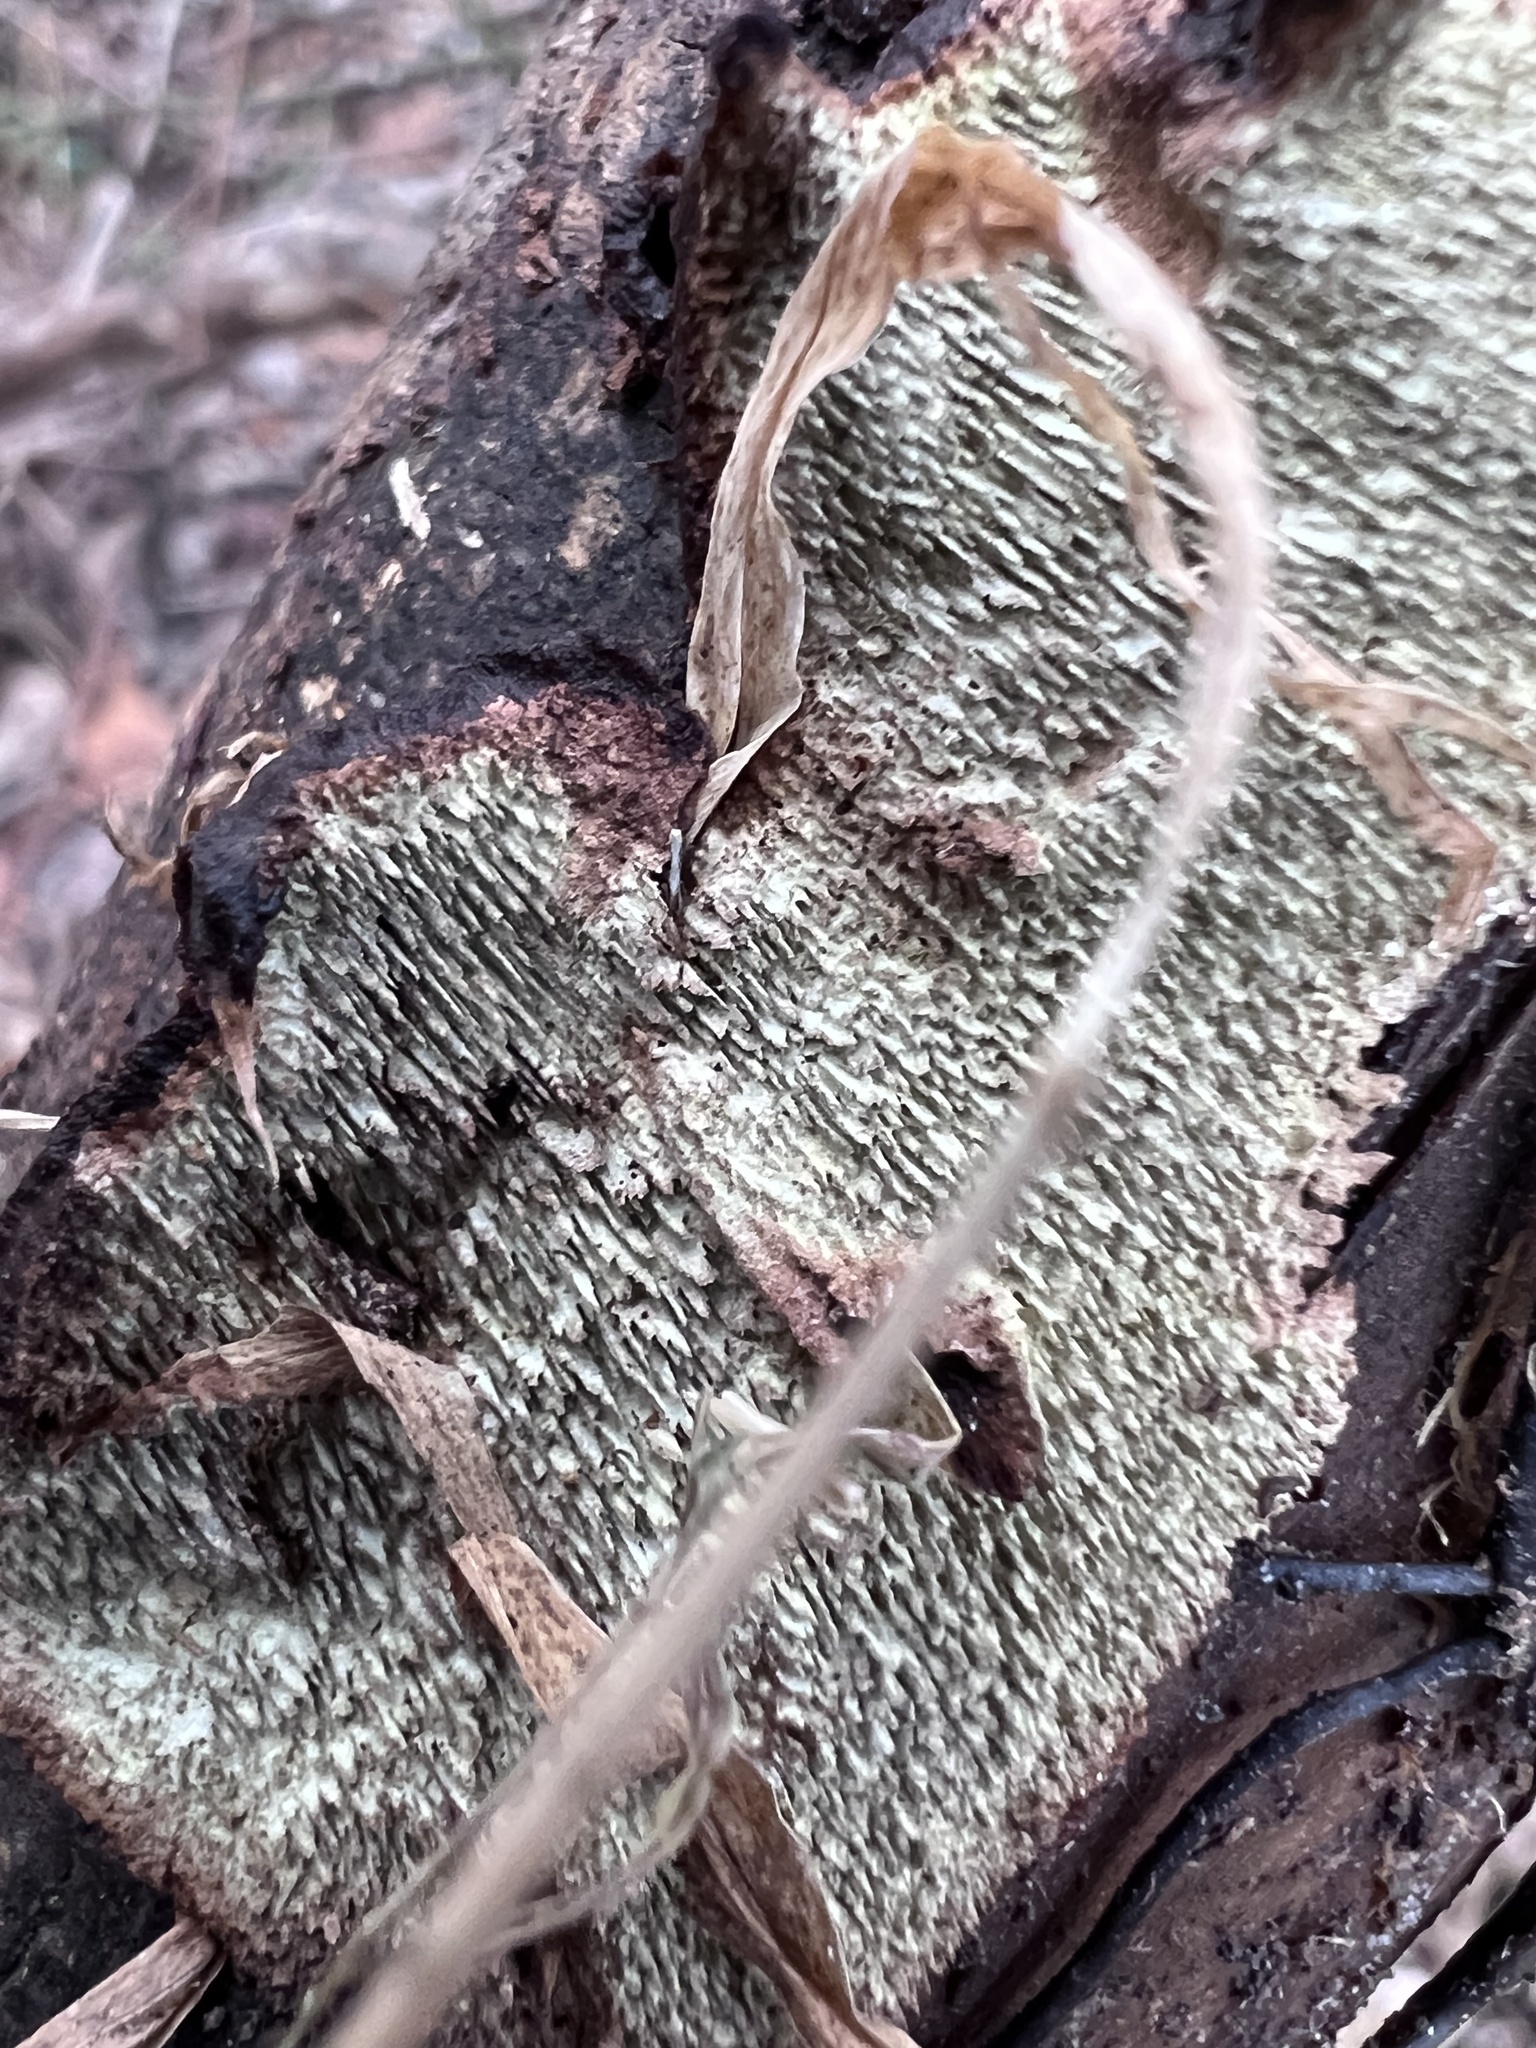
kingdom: Fungi
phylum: Basidiomycota
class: Agaricomycetes
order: Polyporales
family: Polyporaceae
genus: Dentocorticium
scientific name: Dentocorticium portoricense
